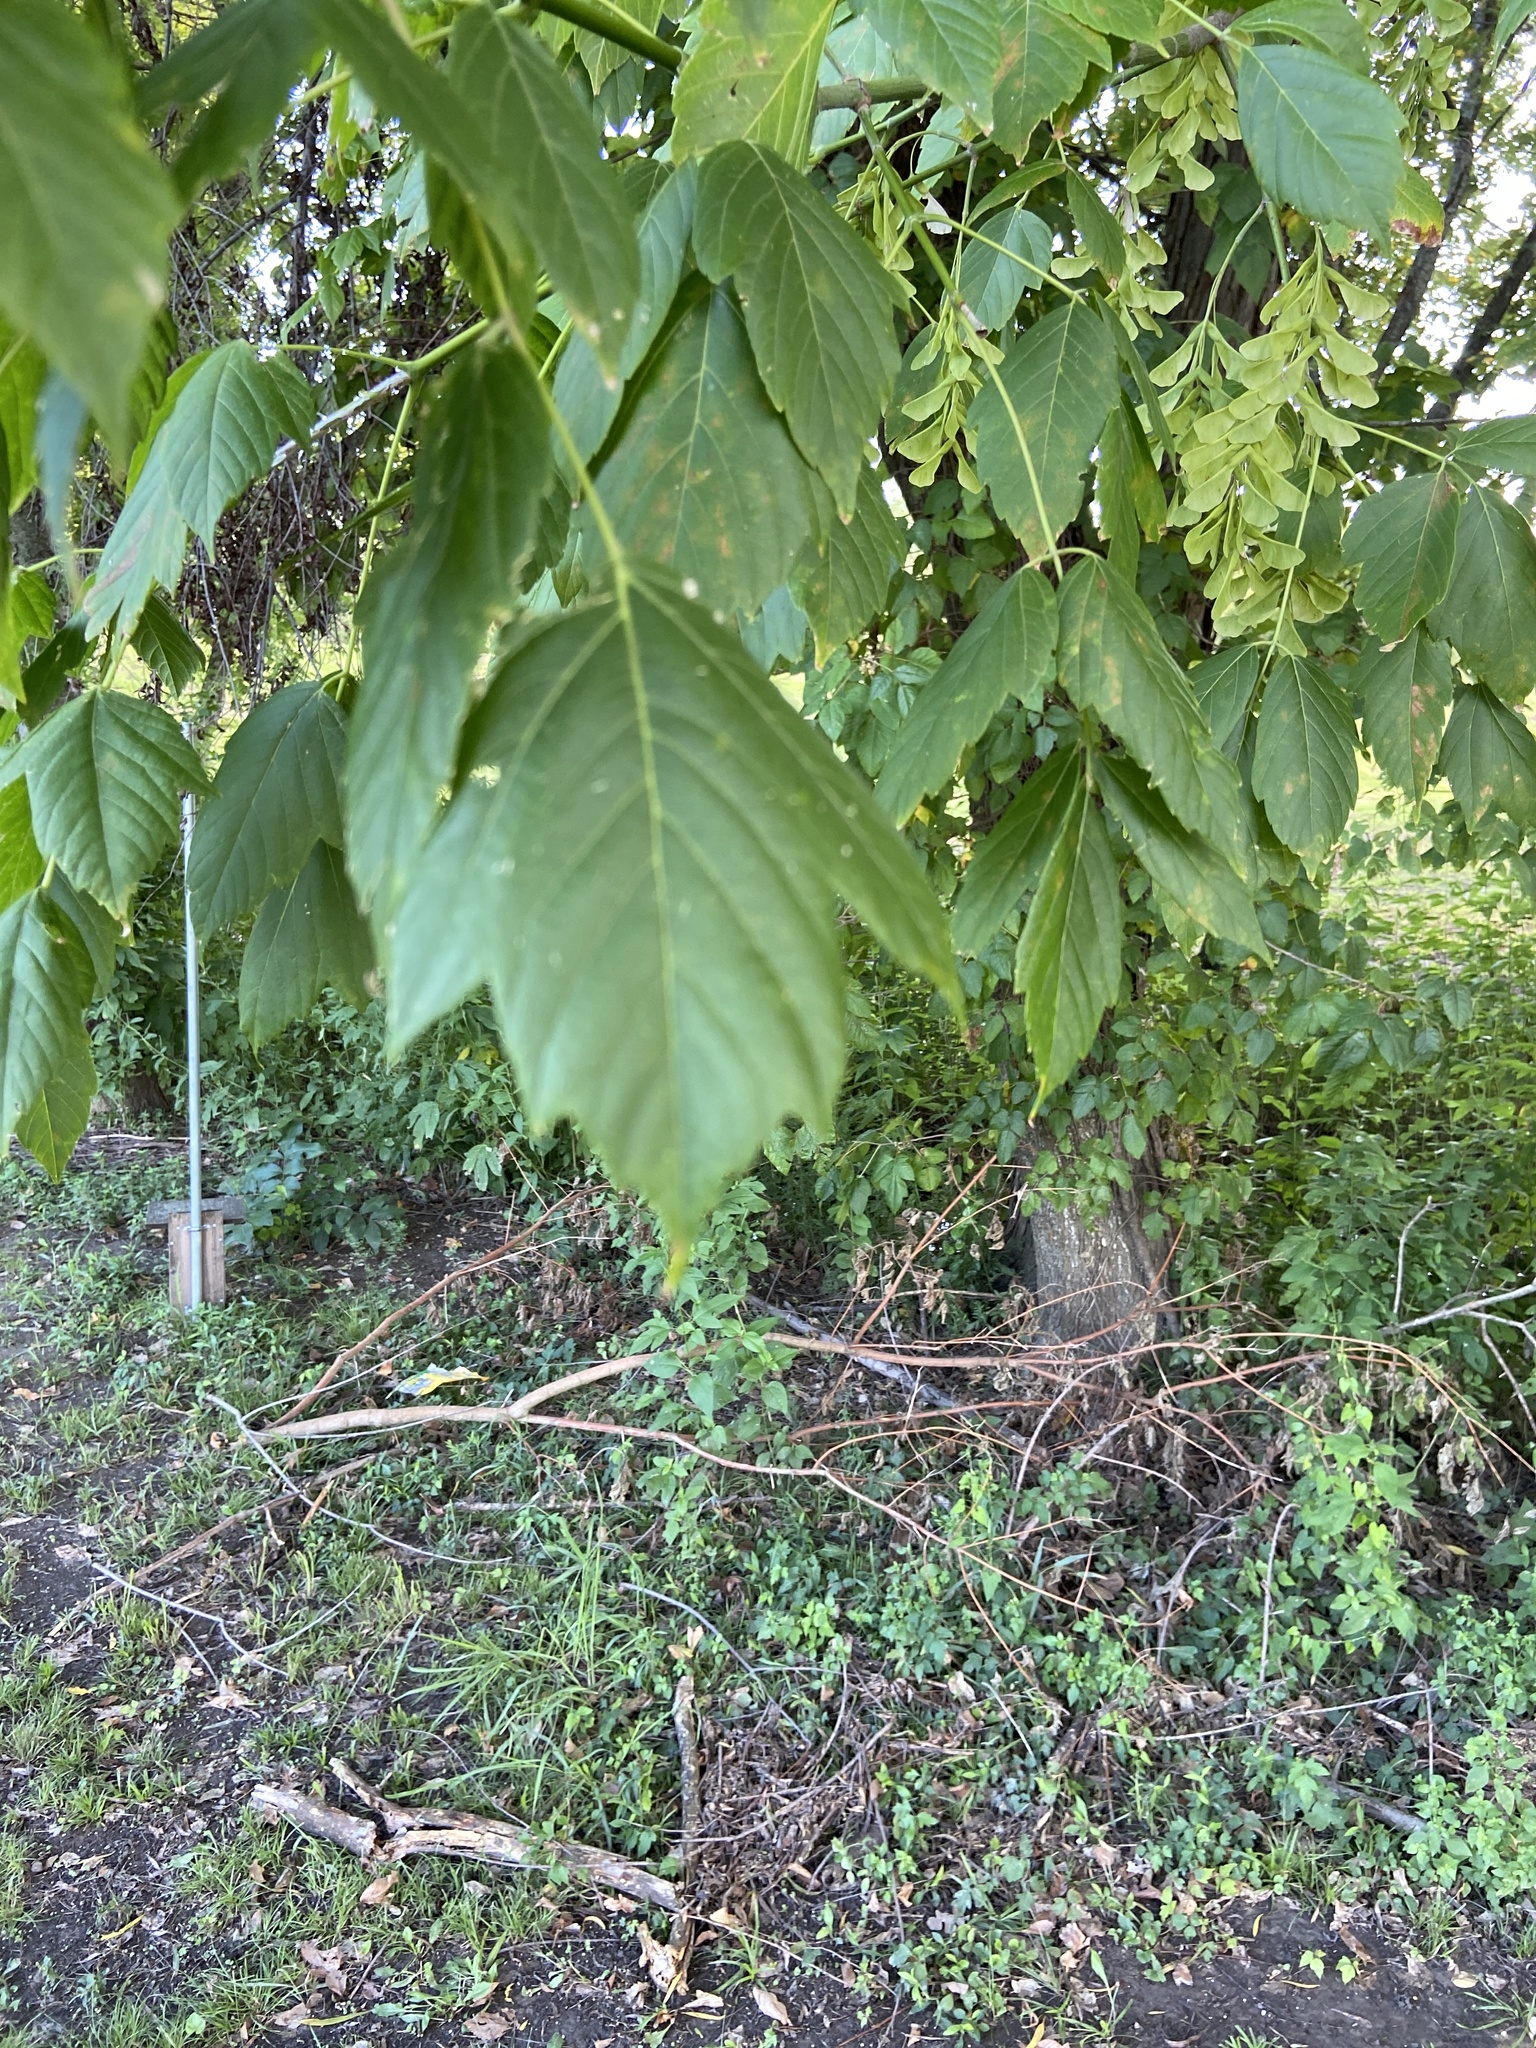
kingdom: Plantae
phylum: Tracheophyta
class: Magnoliopsida
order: Sapindales
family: Sapindaceae
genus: Acer
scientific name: Acer negundo
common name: Ashleaf maple
